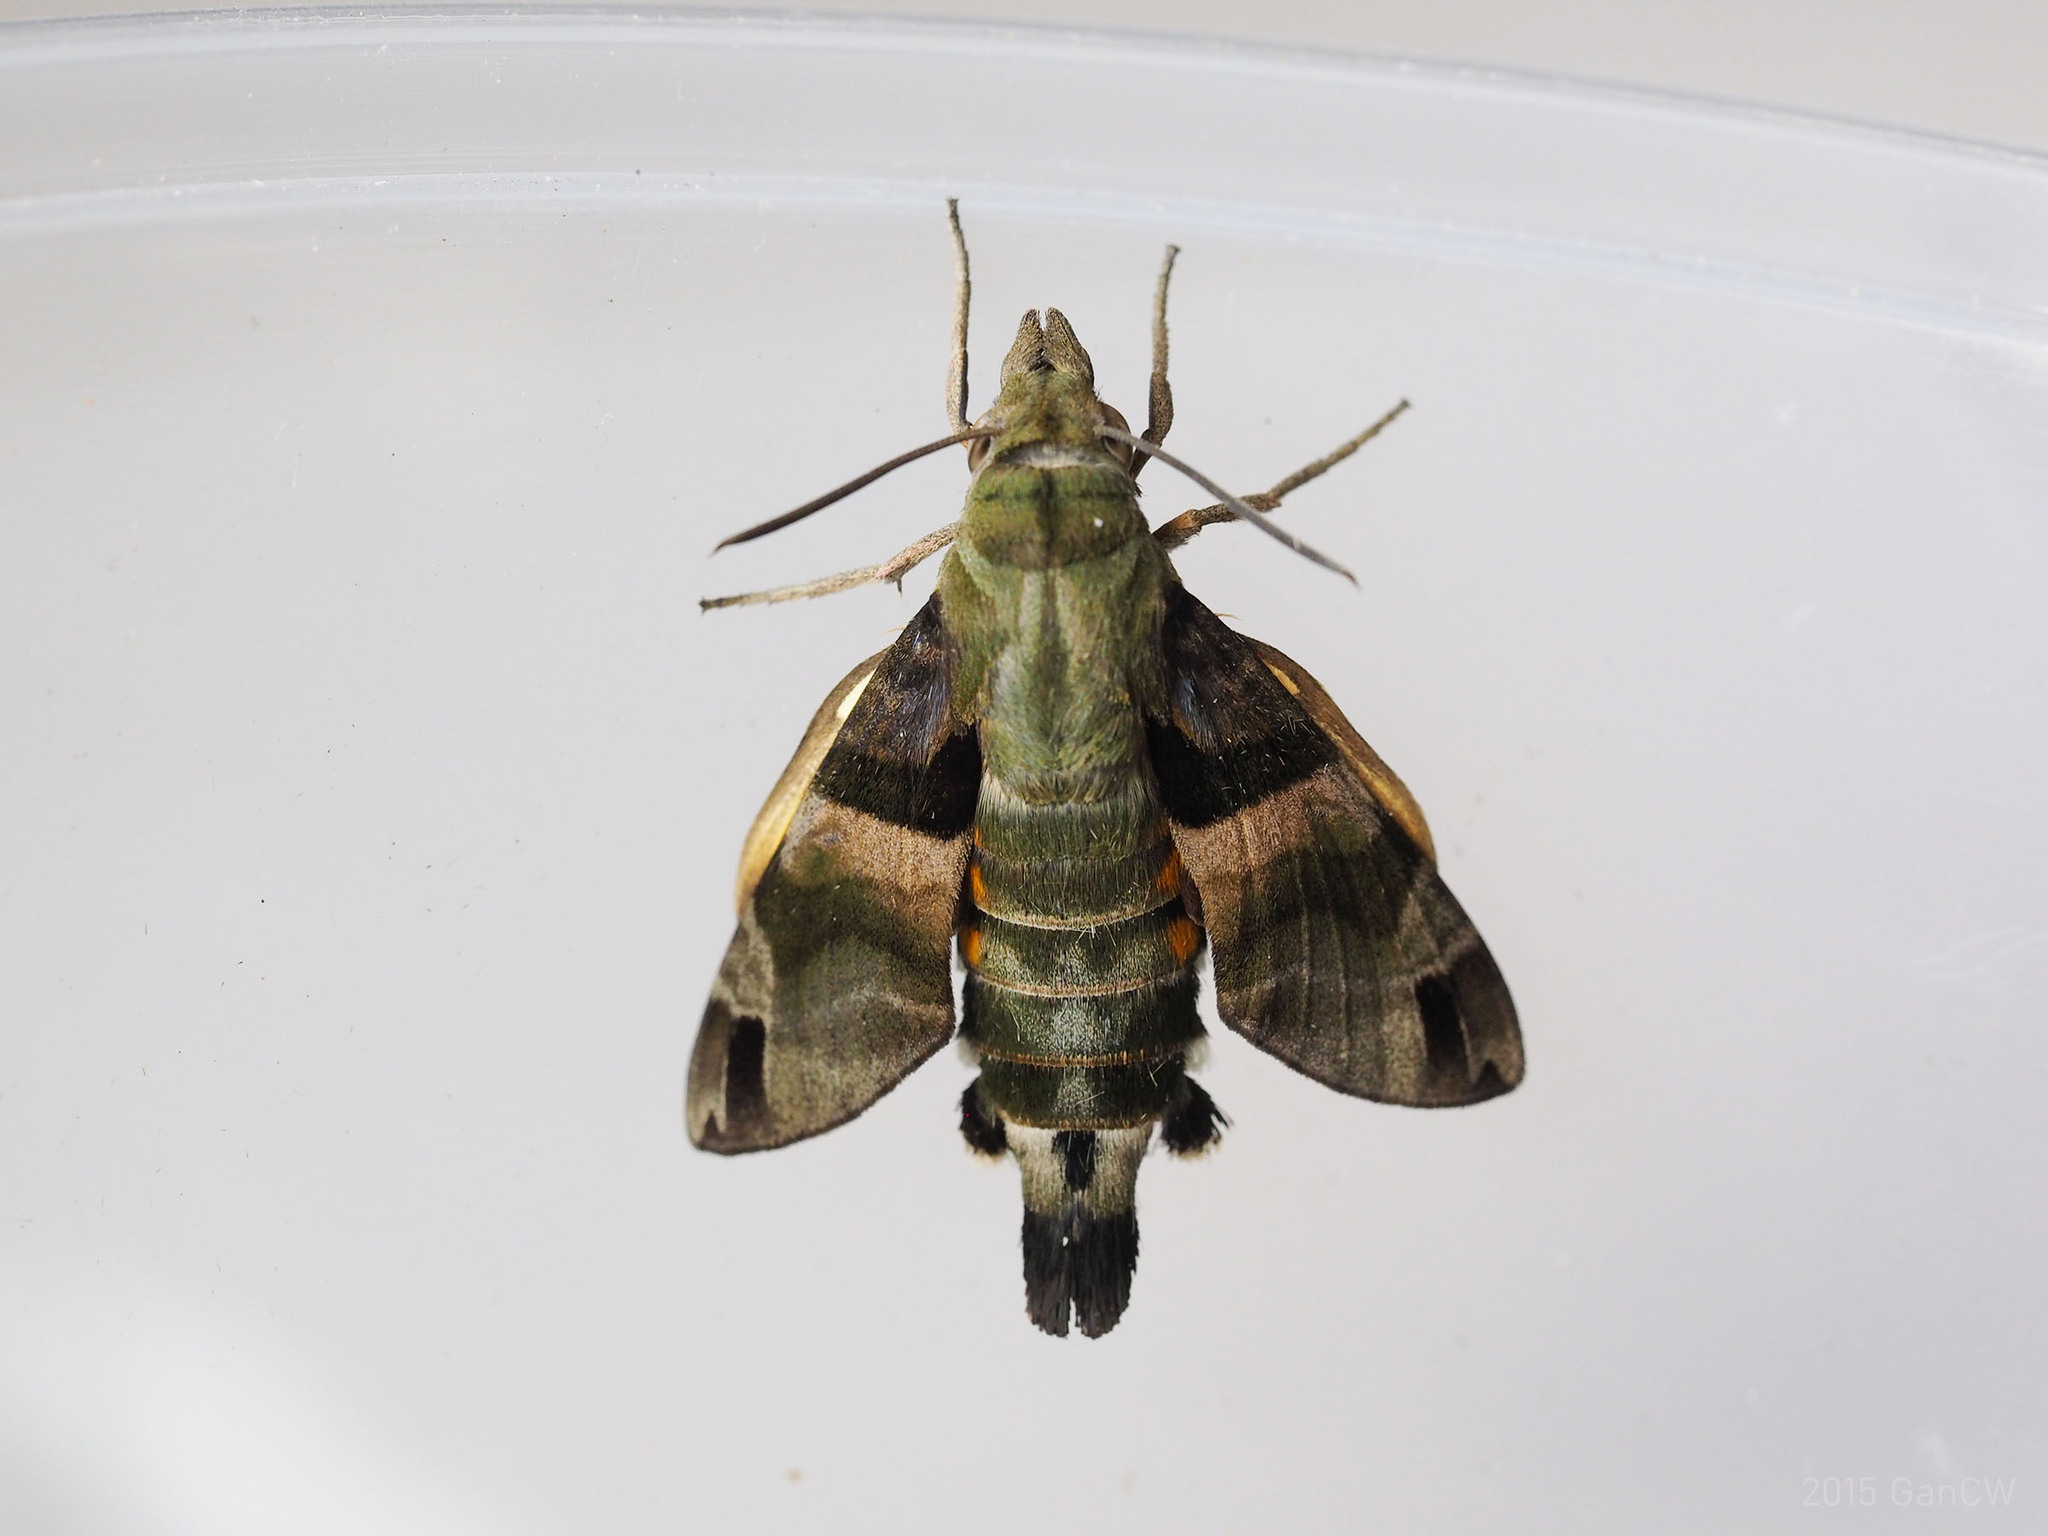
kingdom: Animalia
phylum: Arthropoda
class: Insecta
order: Lepidoptera
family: Sphingidae
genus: Macroglossum
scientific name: Macroglossum sitiene
